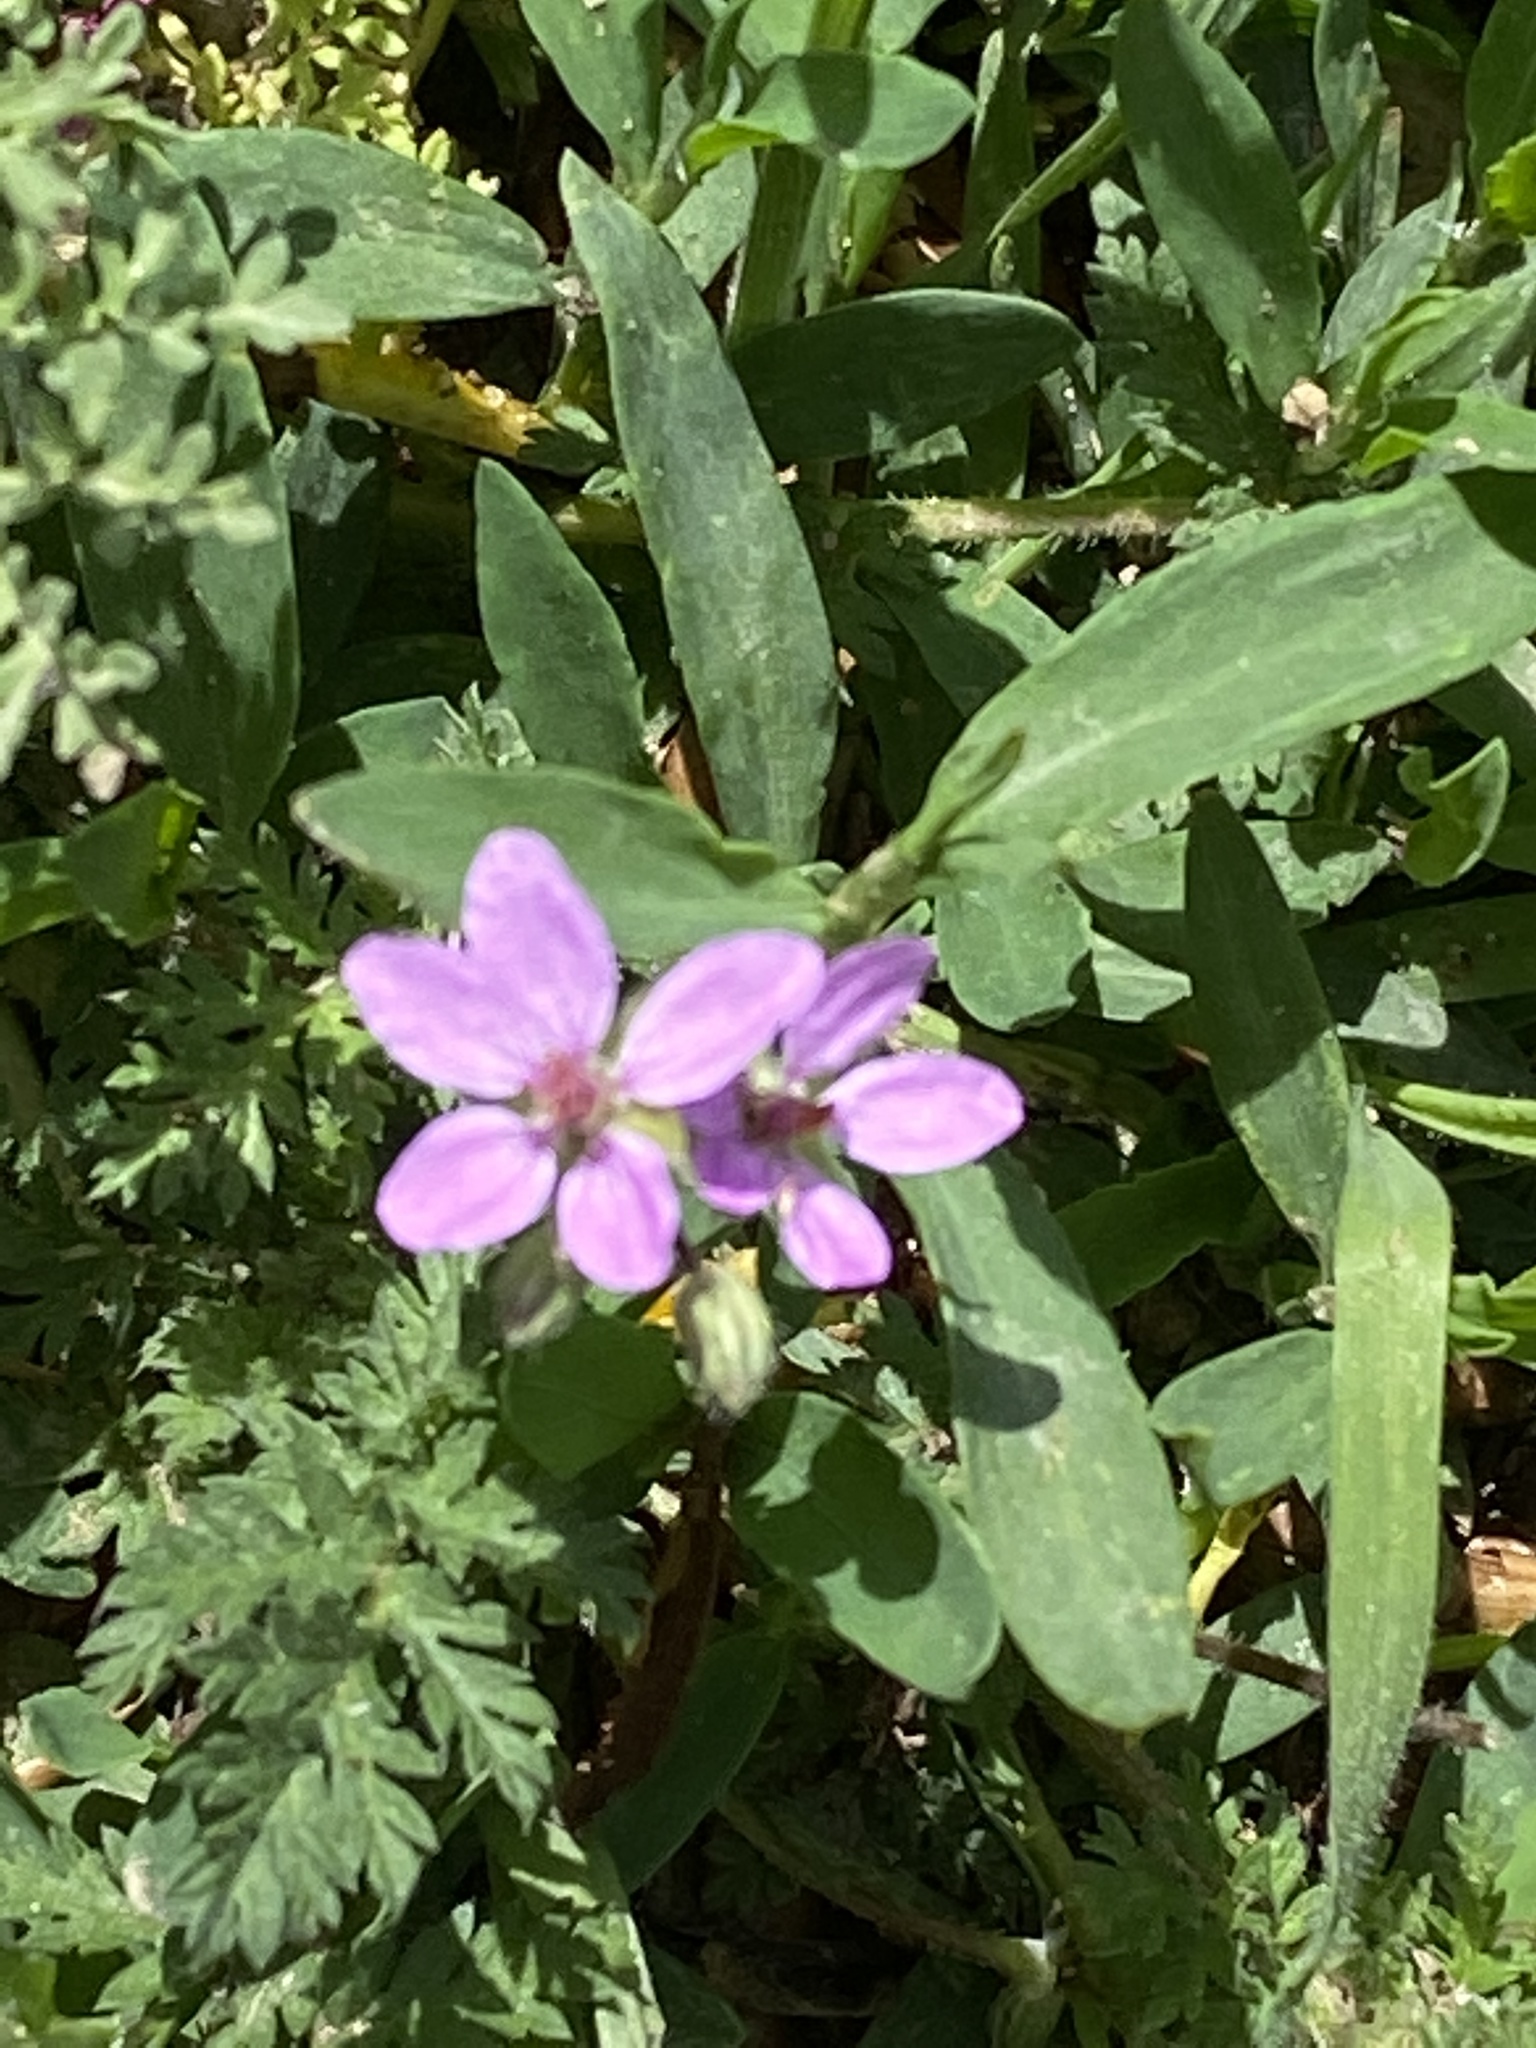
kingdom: Plantae
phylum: Tracheophyta
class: Magnoliopsida
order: Geraniales
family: Geraniaceae
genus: Erodium
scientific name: Erodium cicutarium
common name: Common stork's-bill
